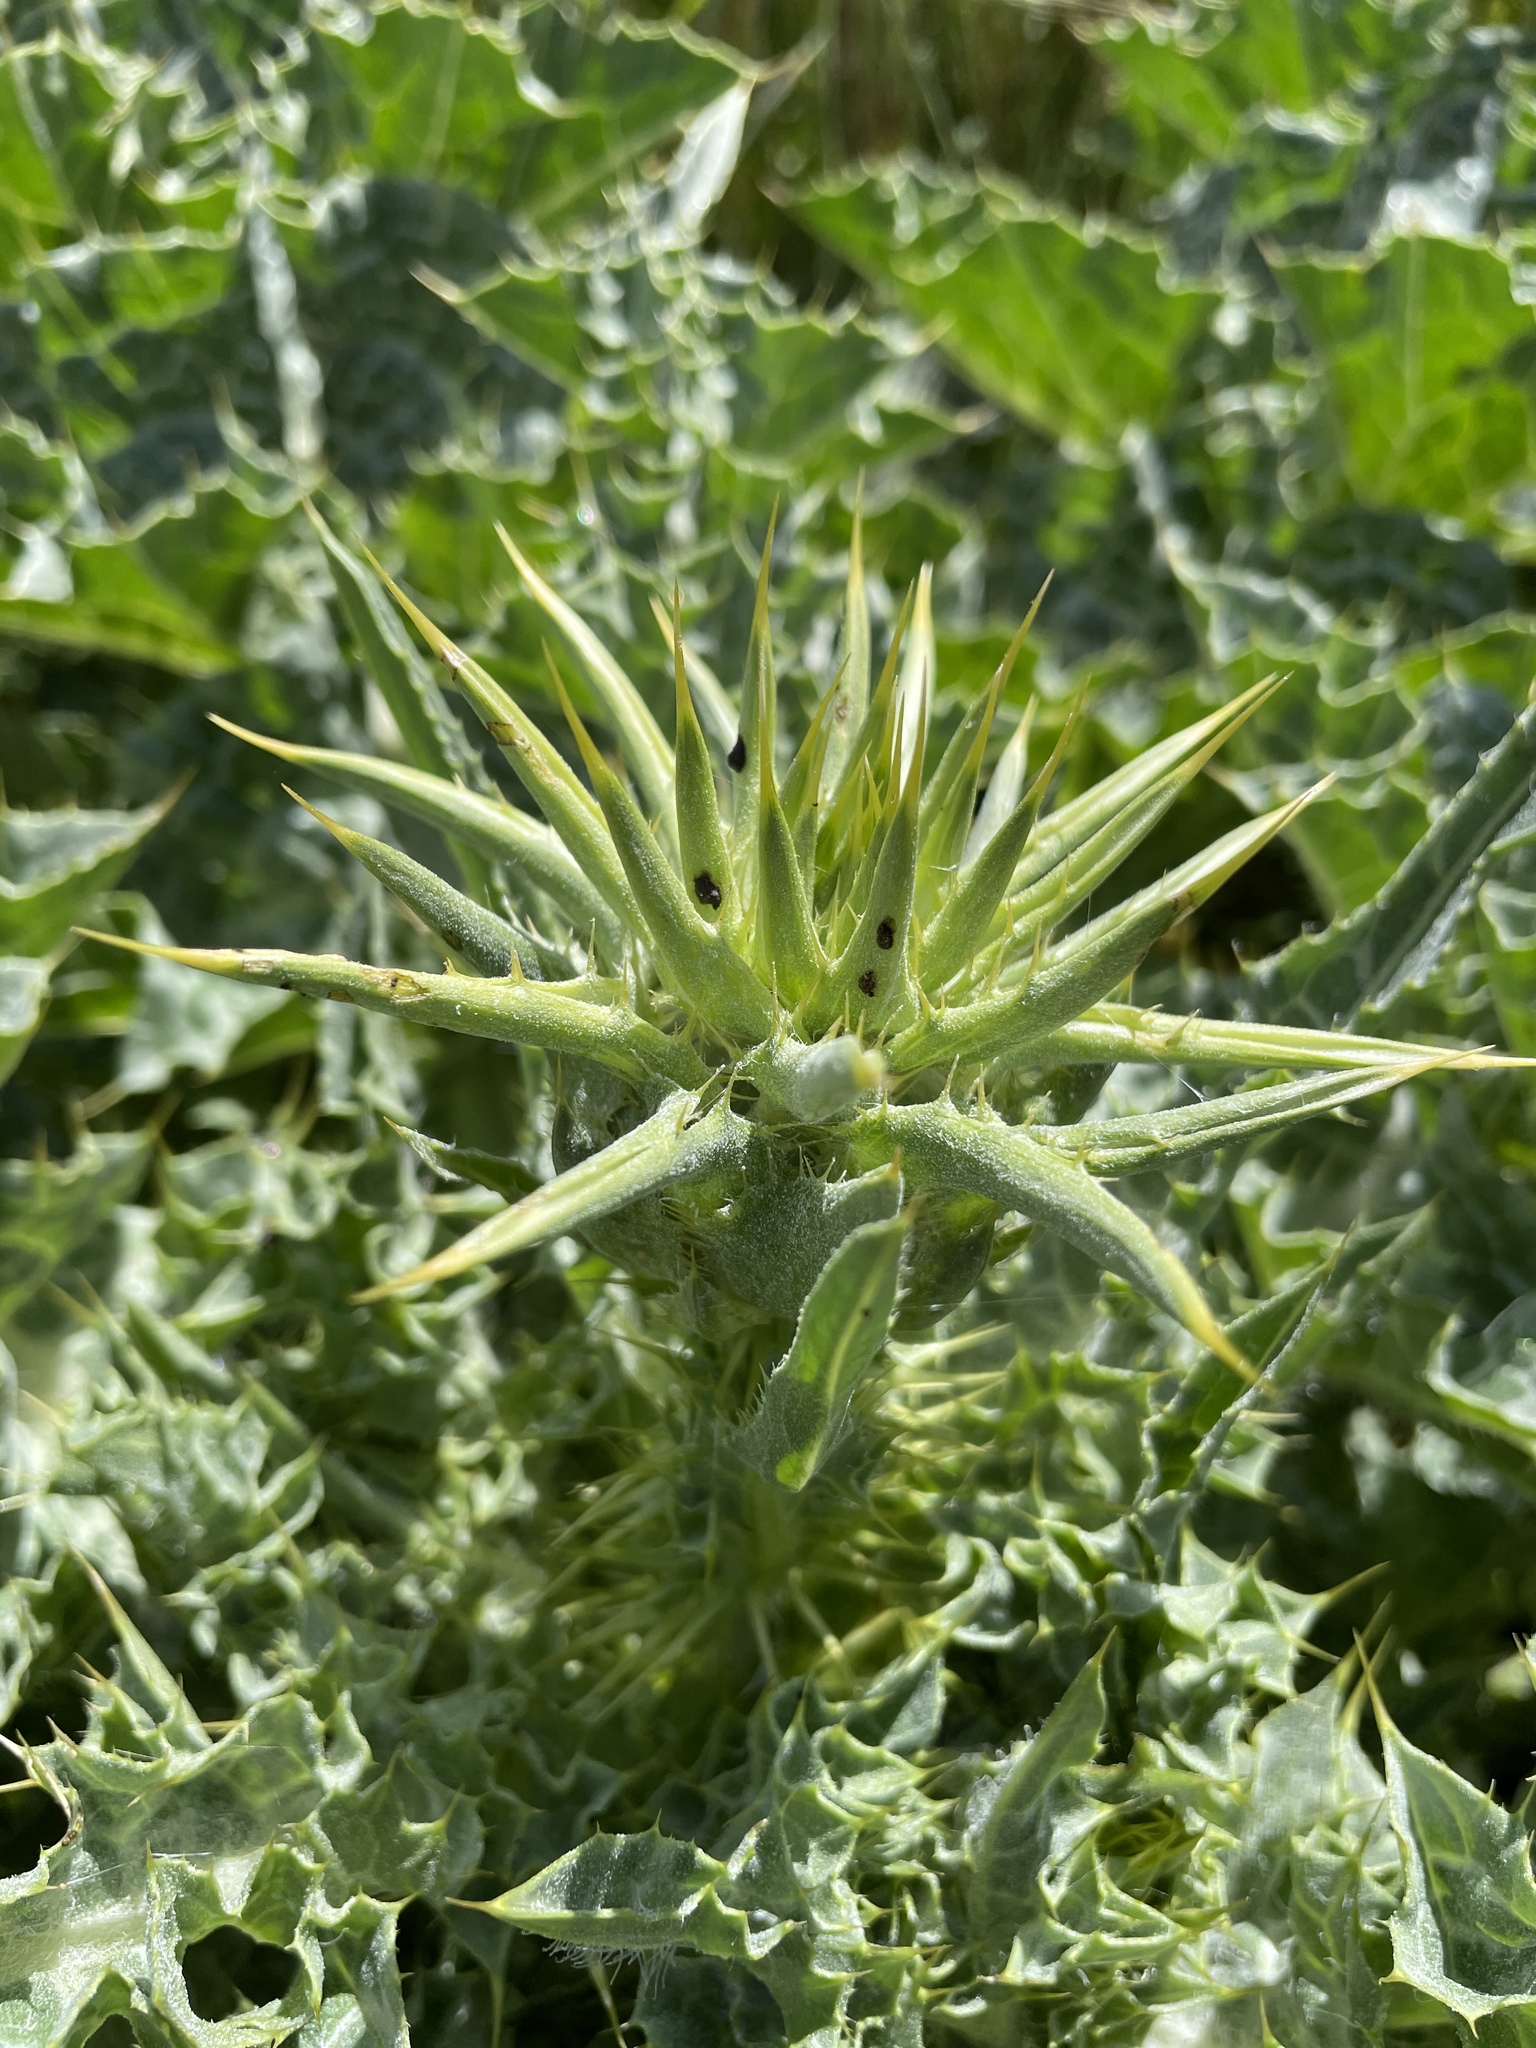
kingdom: Plantae
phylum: Tracheophyta
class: Magnoliopsida
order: Asterales
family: Asteraceae
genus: Silybum
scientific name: Silybum marianum
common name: Milk thistle
